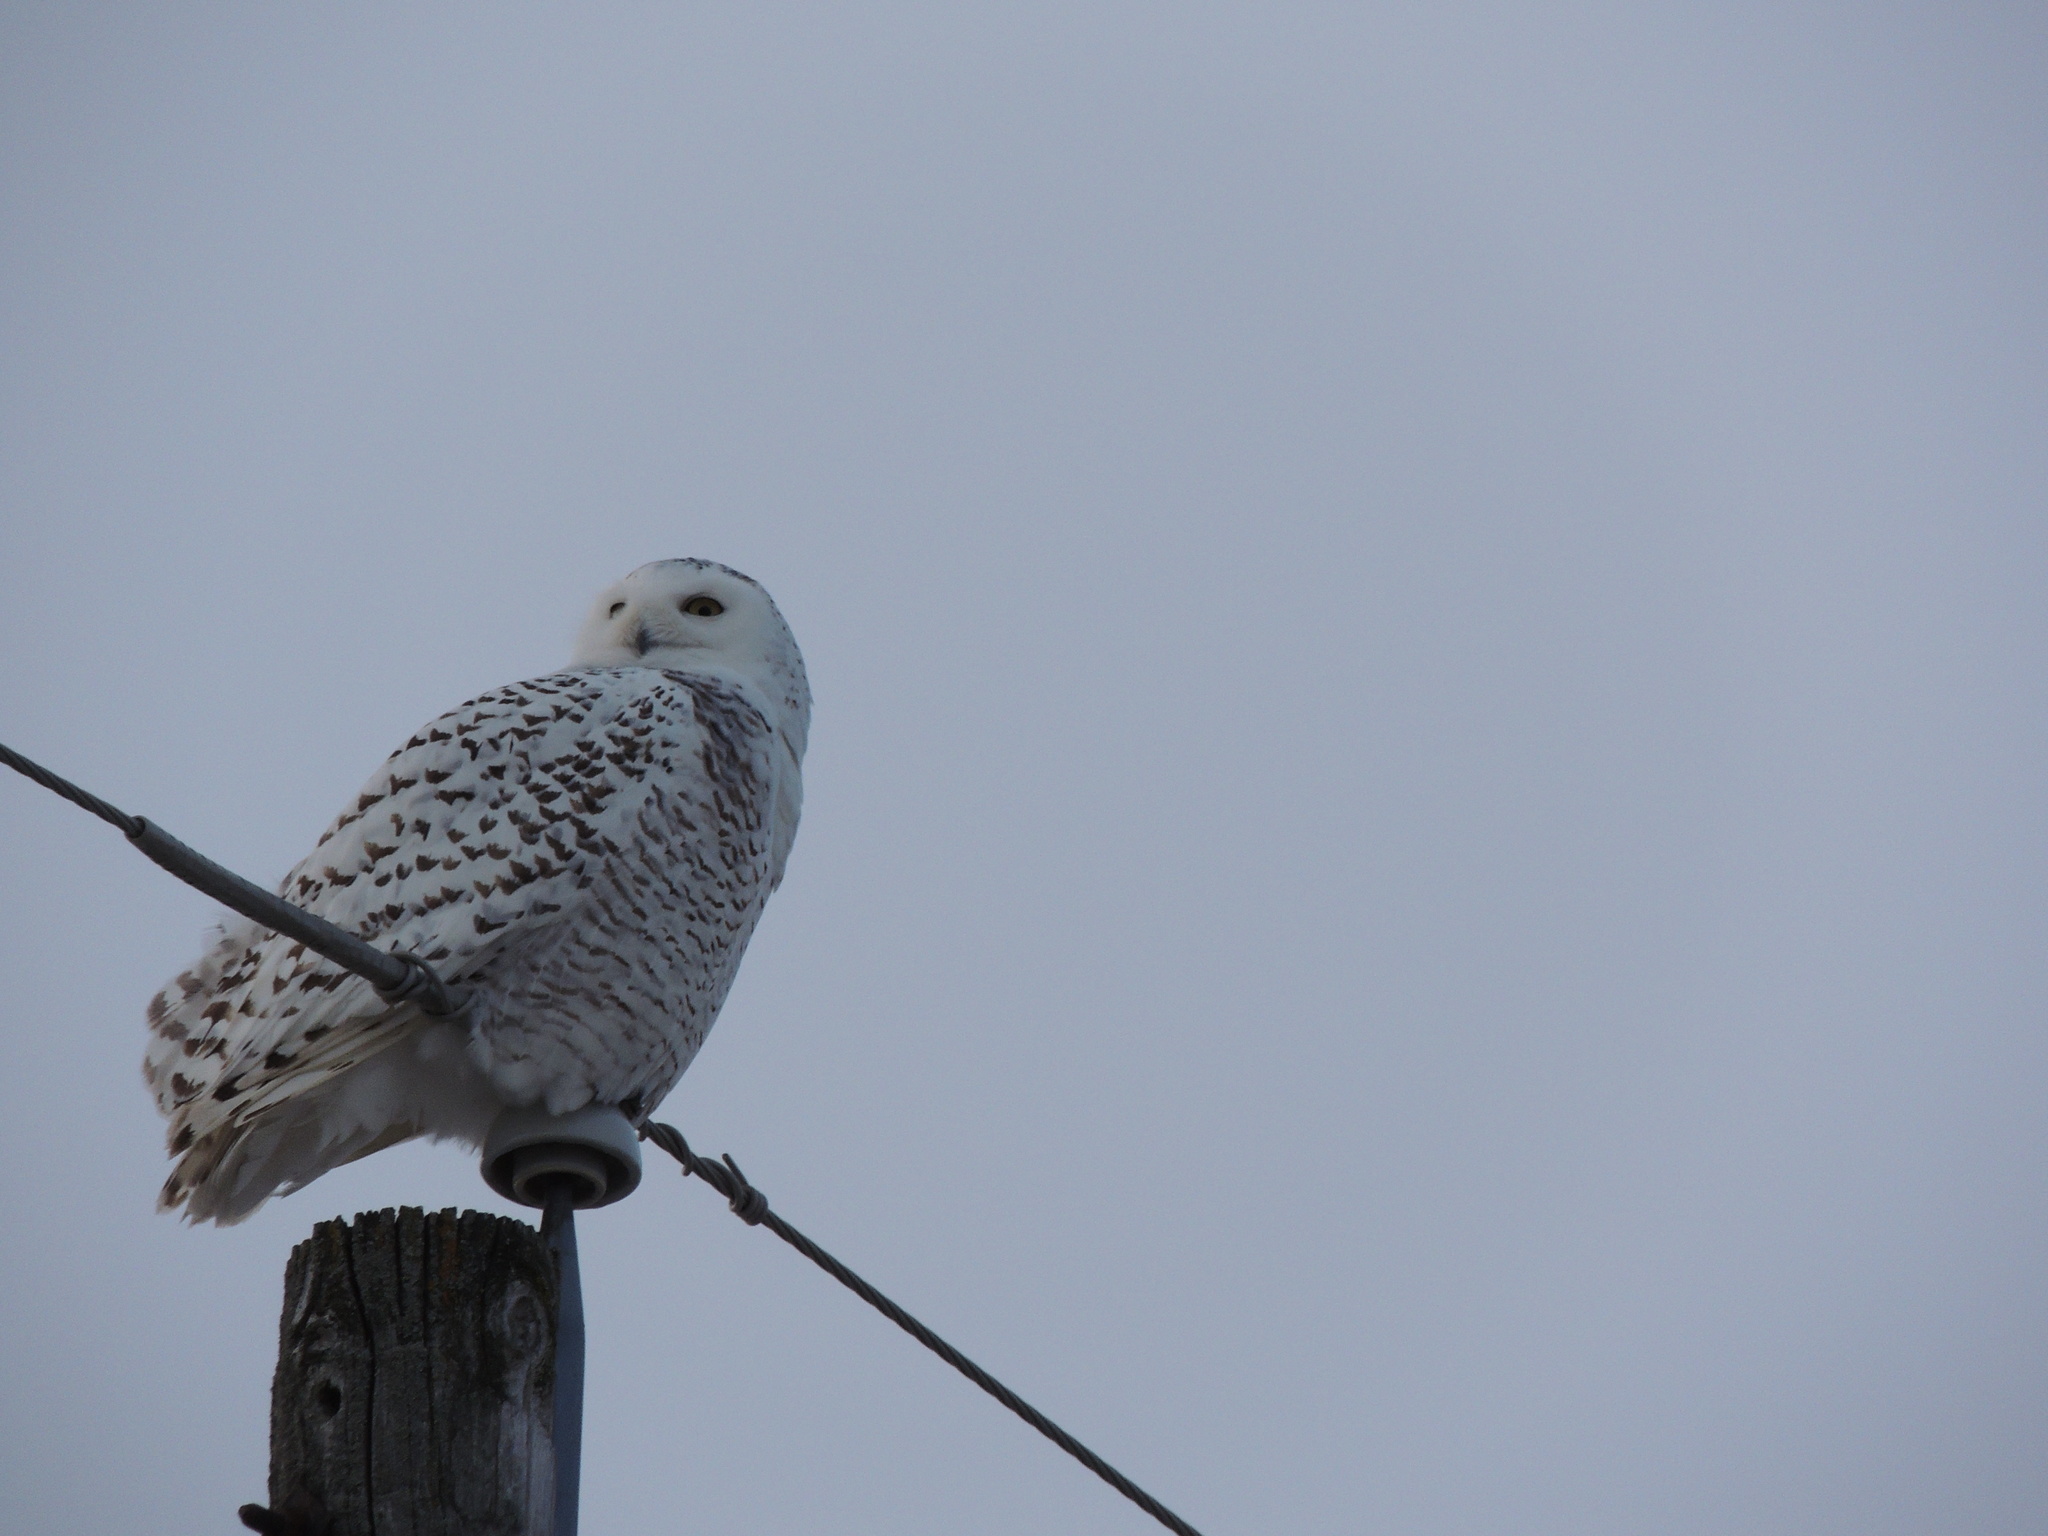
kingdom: Animalia
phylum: Chordata
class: Aves
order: Strigiformes
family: Strigidae
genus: Bubo
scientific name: Bubo scandiacus
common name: Snowy owl
